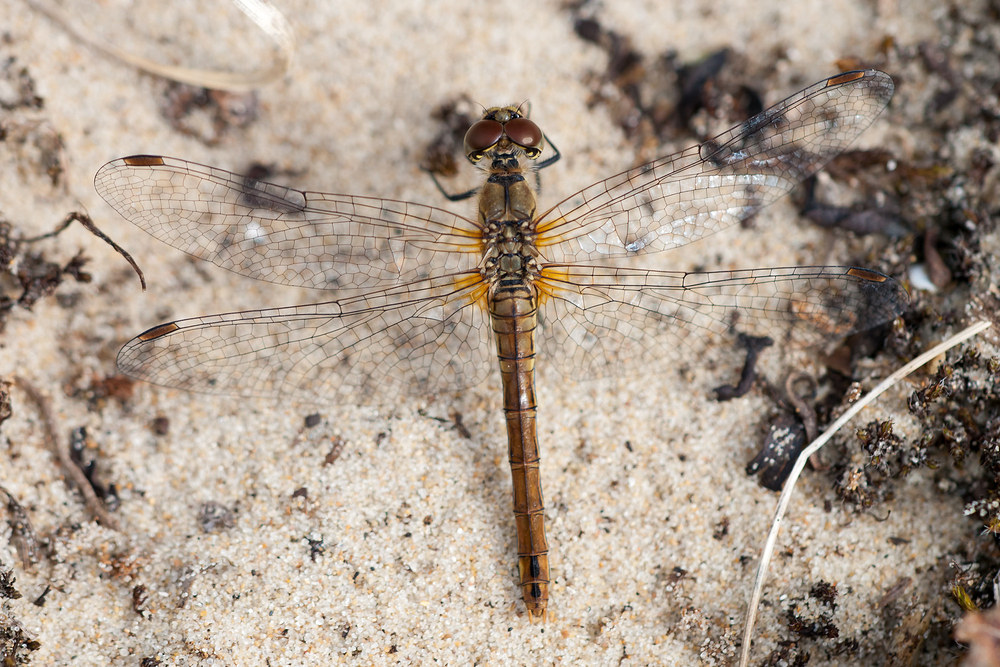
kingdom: Animalia
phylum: Arthropoda
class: Insecta
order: Odonata
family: Libellulidae
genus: Sympetrum
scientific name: Sympetrum sanguineum
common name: Ruddy darter
